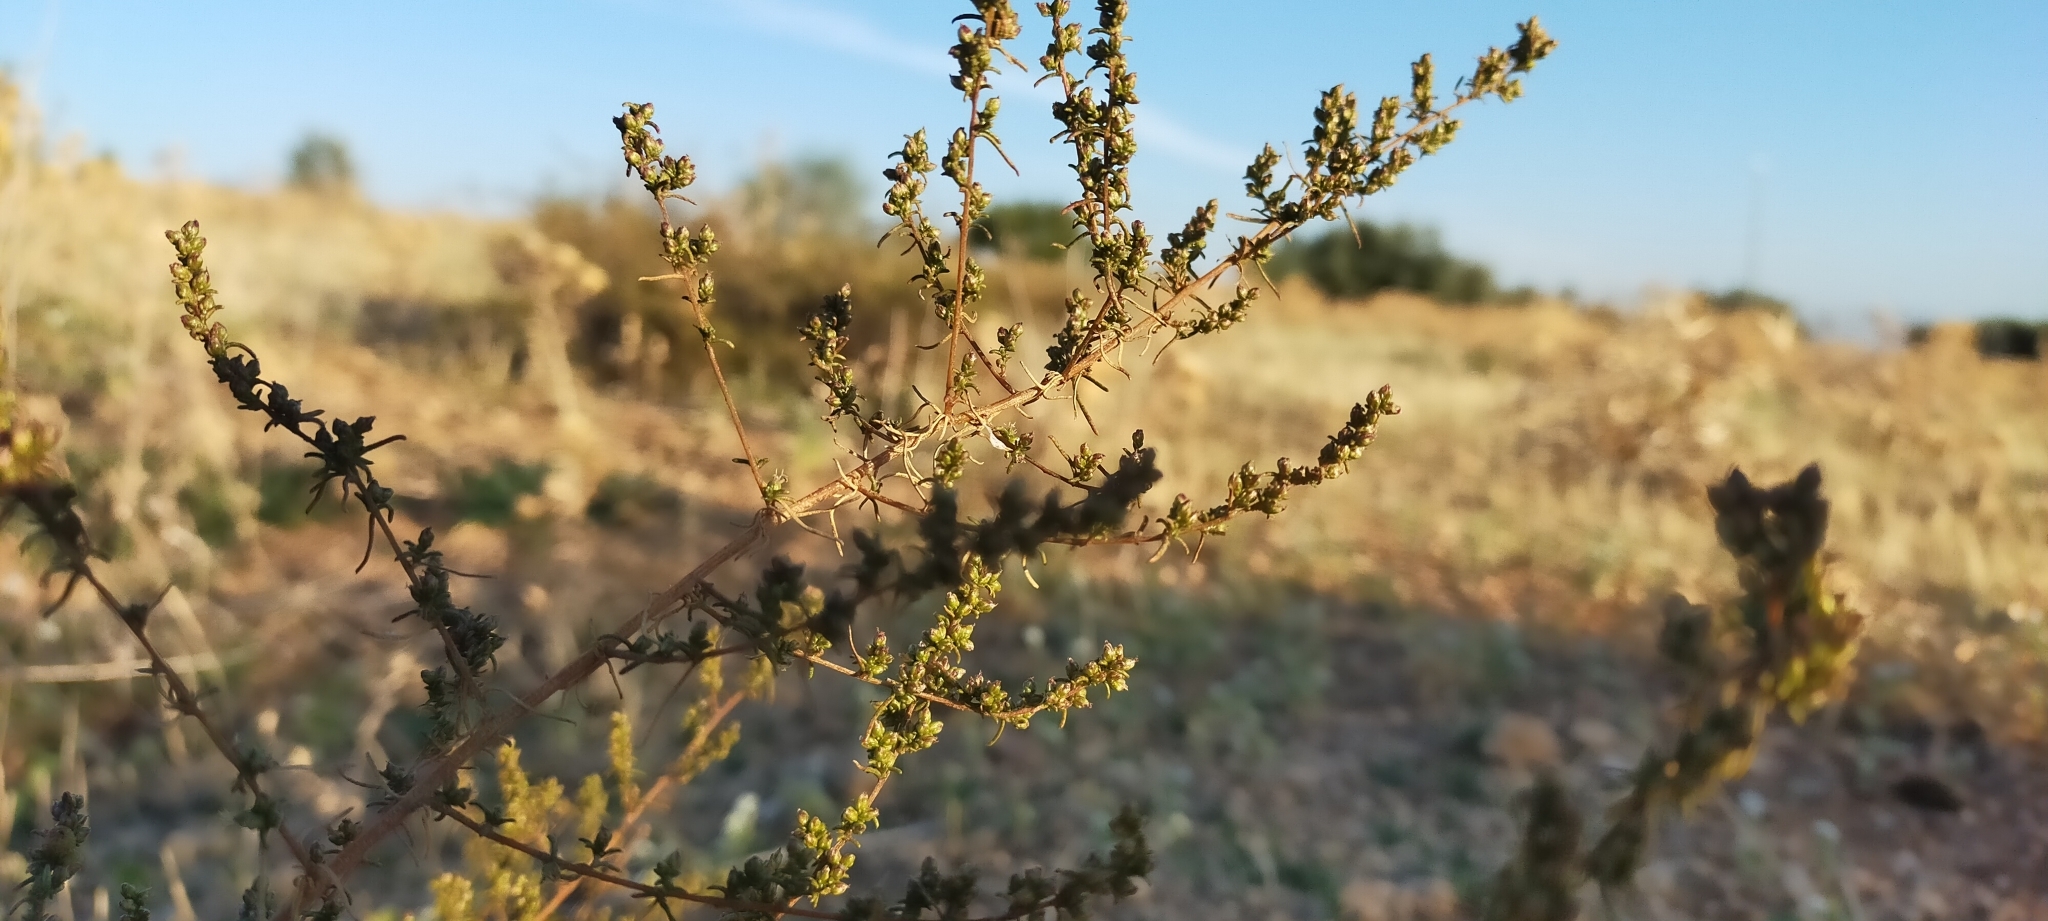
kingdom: Plantae
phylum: Tracheophyta
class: Magnoliopsida
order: Asterales
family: Asteraceae
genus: Artemisia
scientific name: Artemisia campestris
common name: Field wormwood
